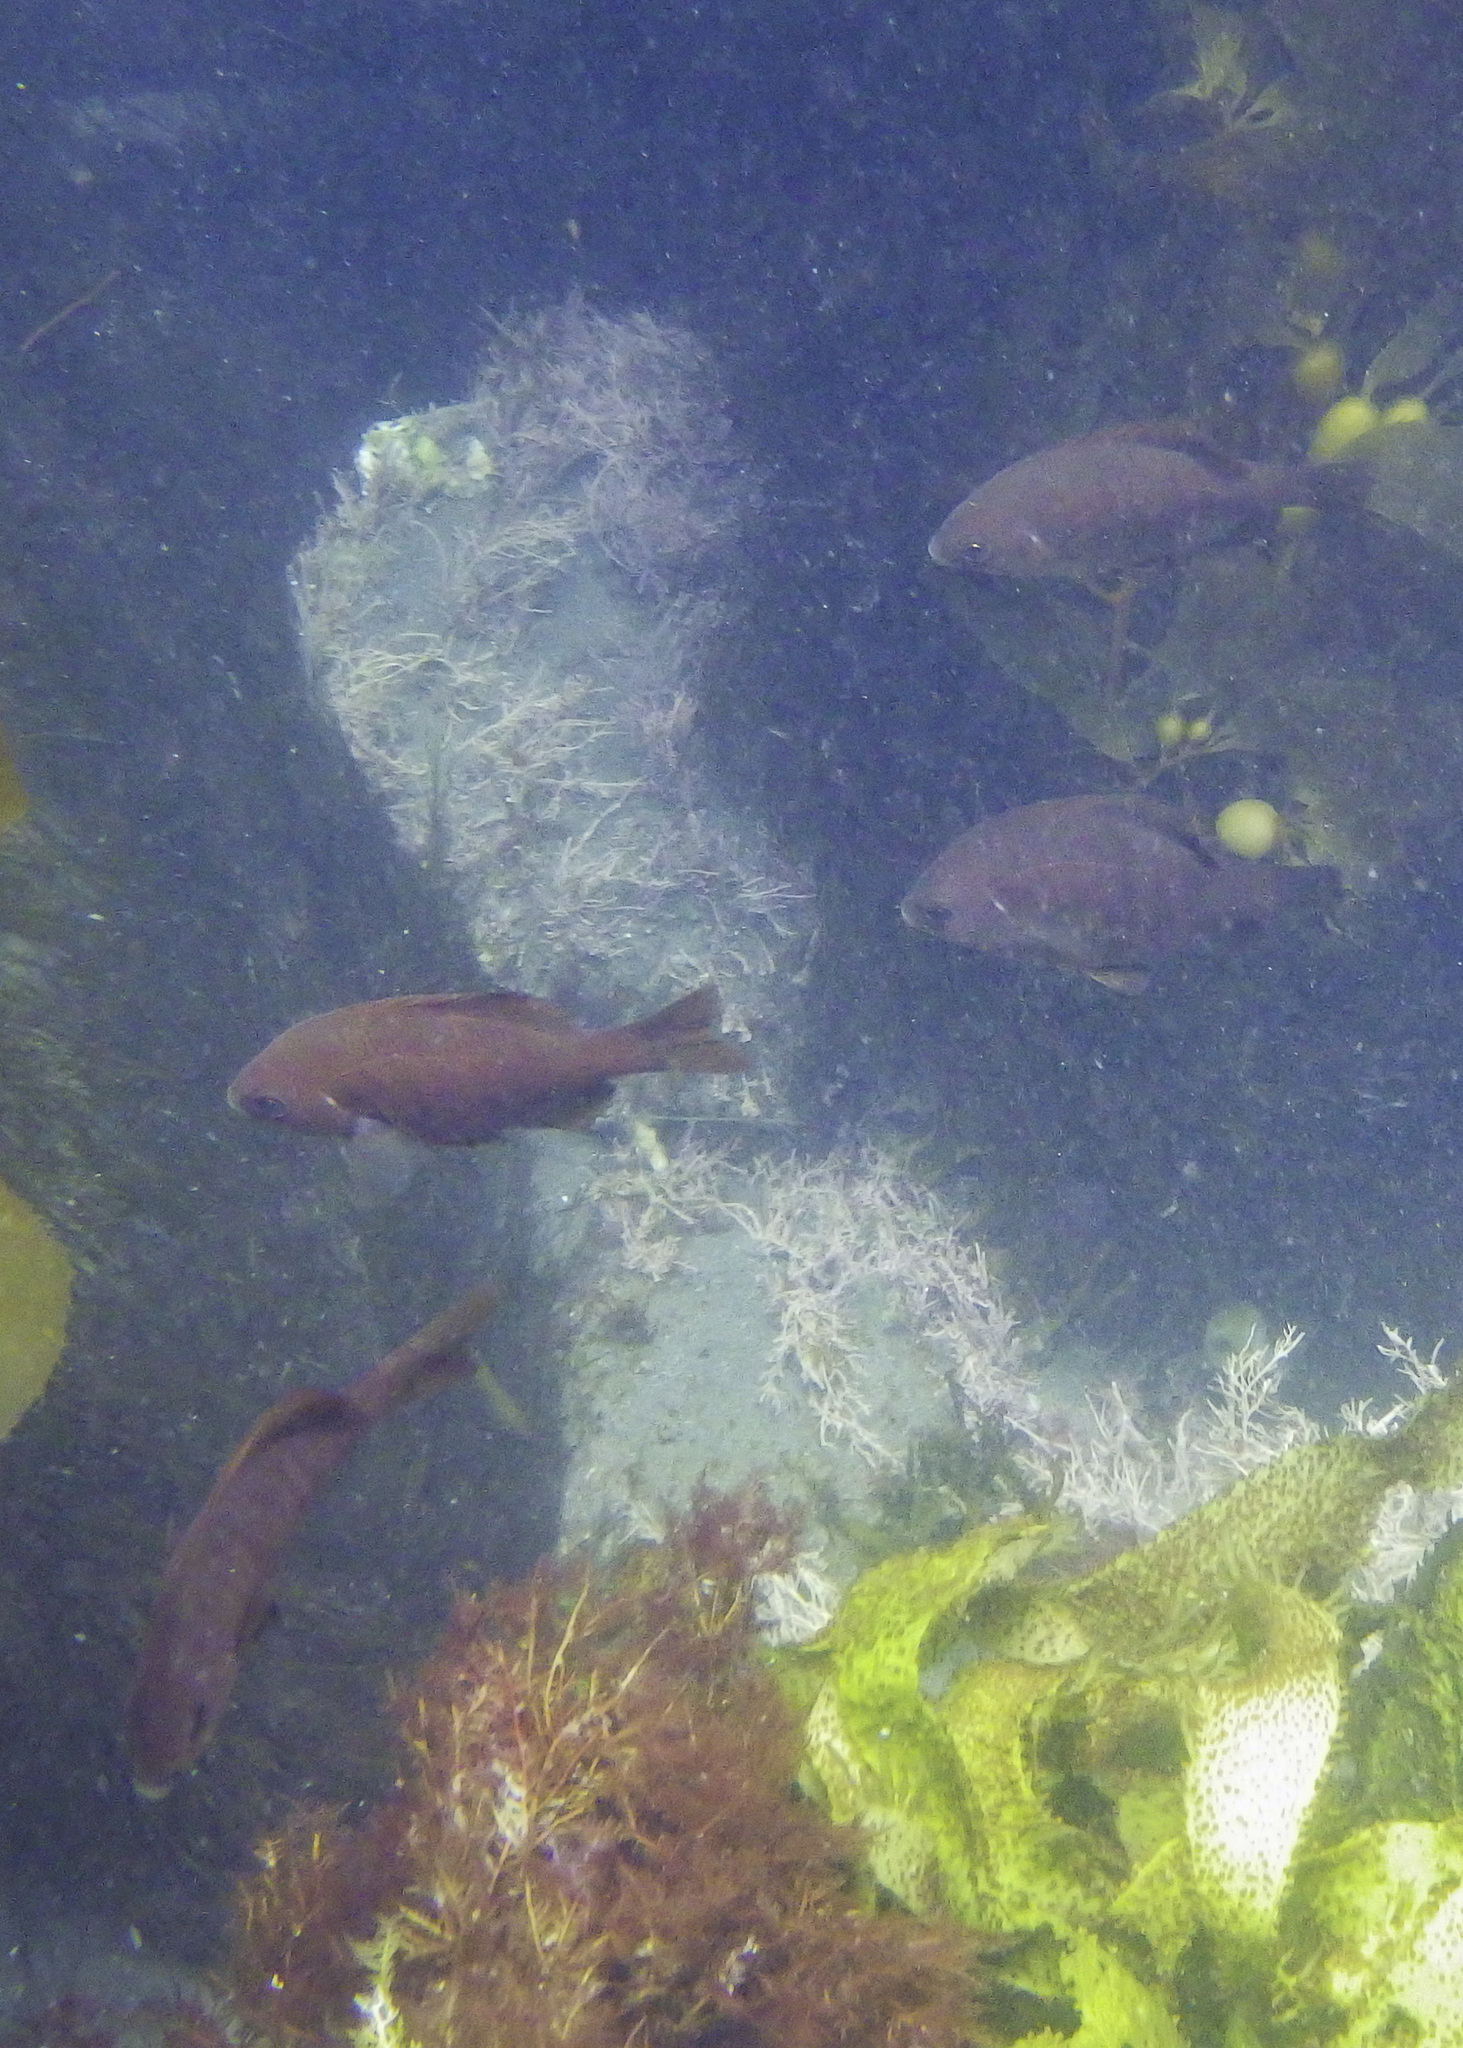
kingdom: Animalia
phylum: Chordata
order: Perciformes
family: Embiotocidae
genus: Embiotoca
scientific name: Embiotoca jacksoni
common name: Black perch
